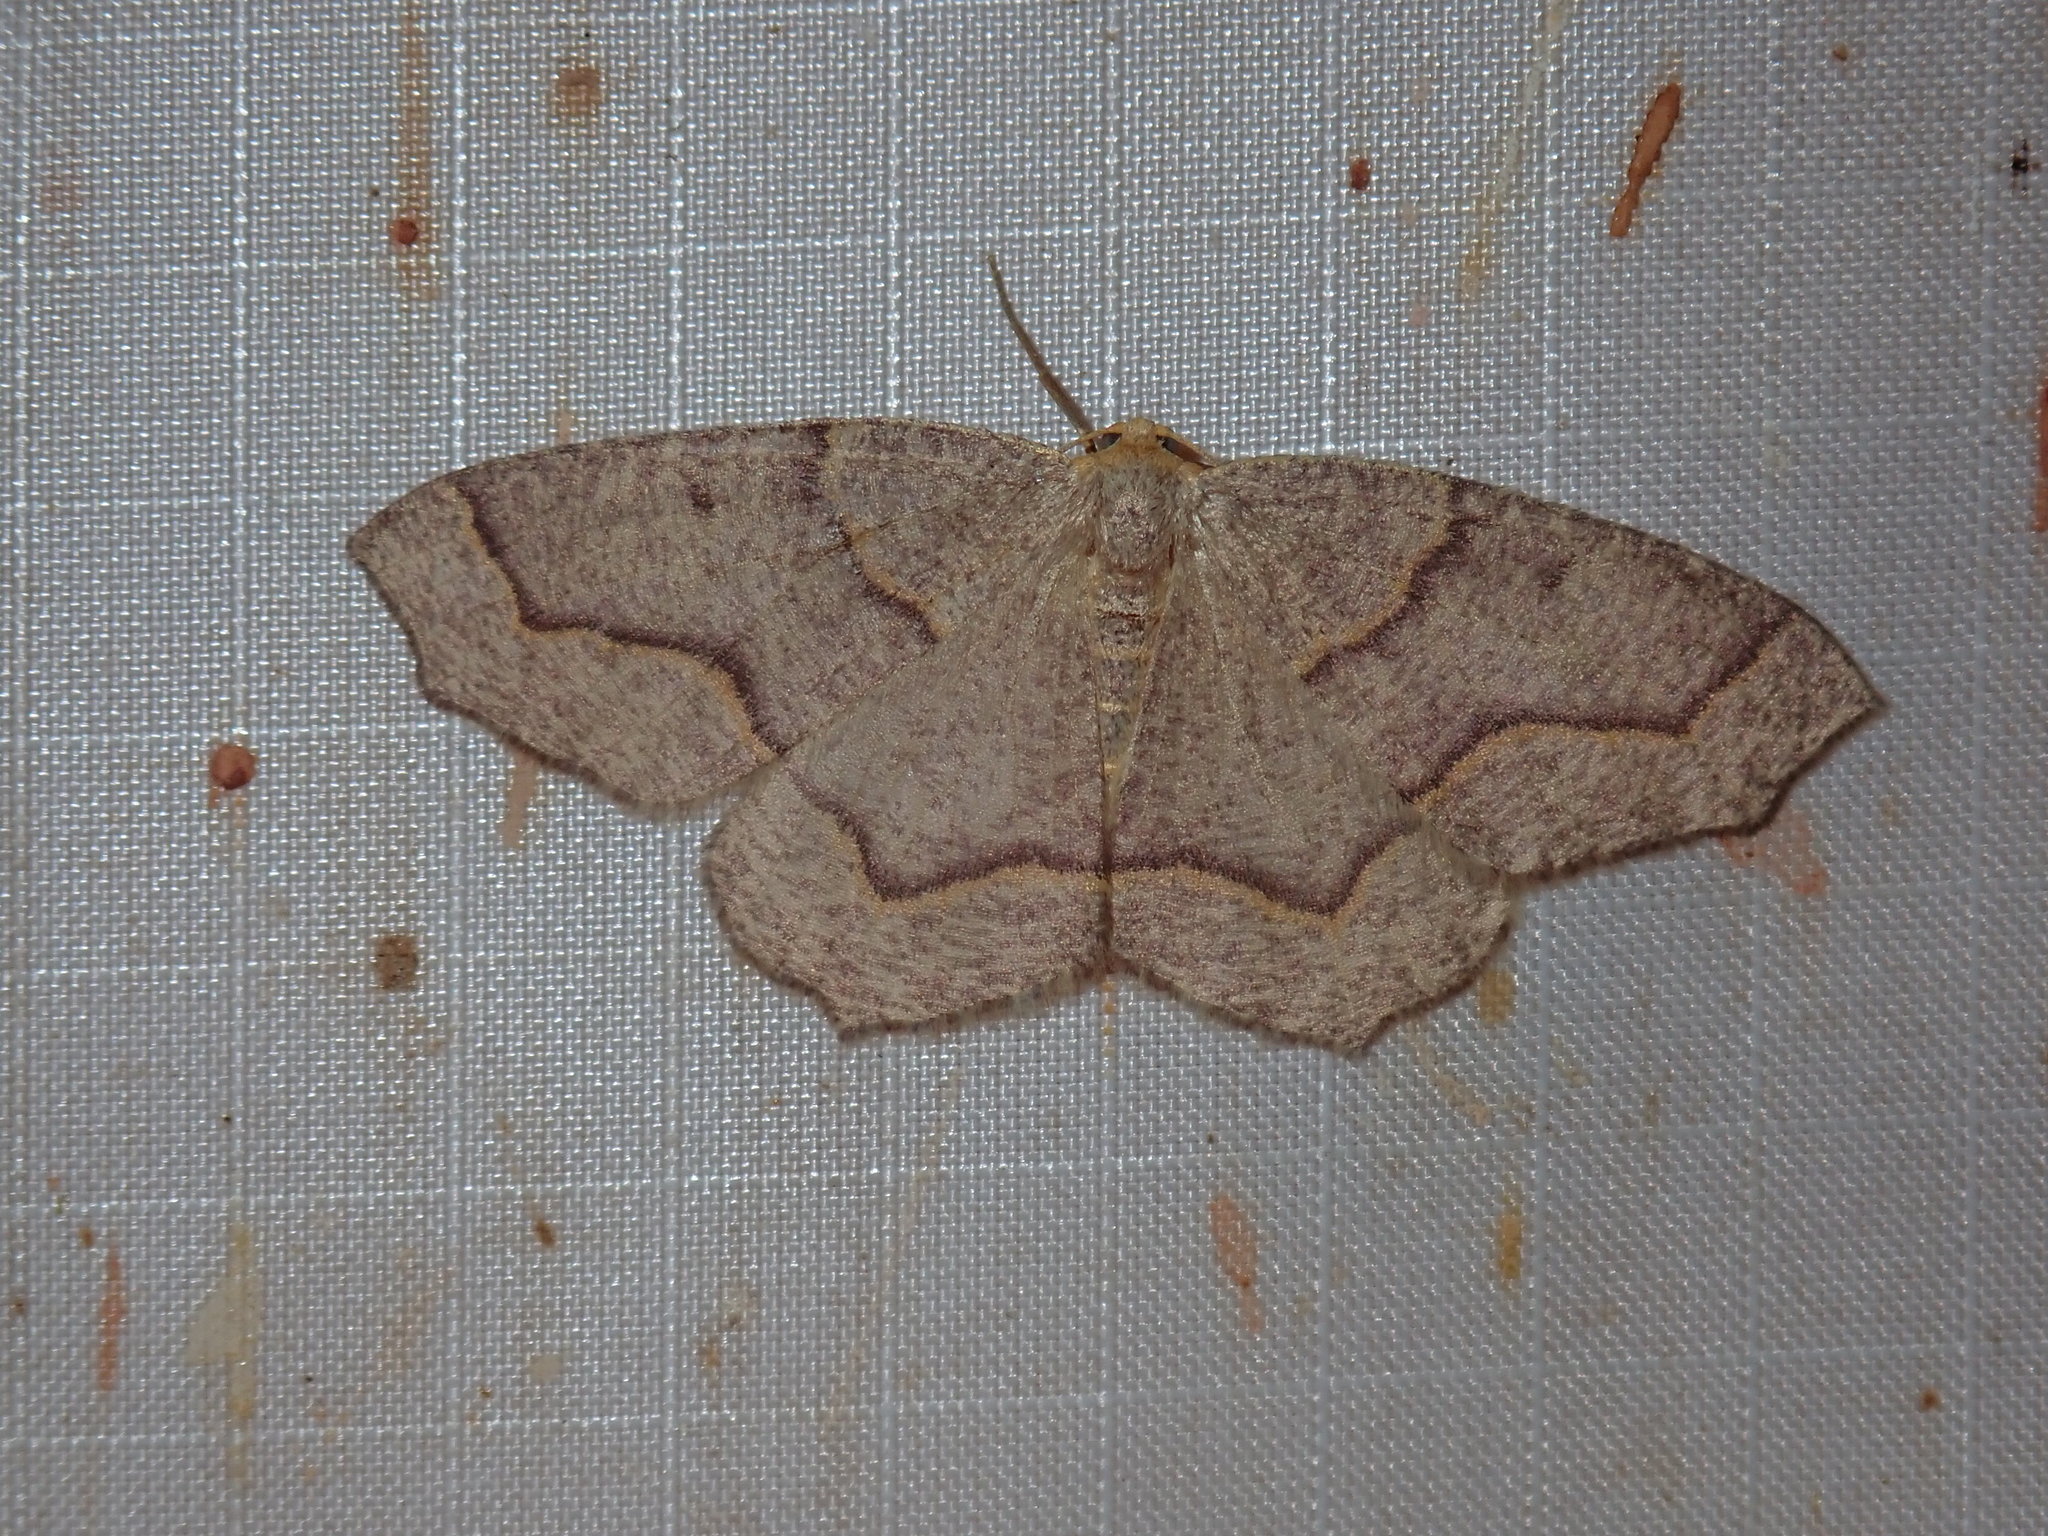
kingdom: Animalia
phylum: Arthropoda
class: Insecta
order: Lepidoptera
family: Geometridae
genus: Lambdina
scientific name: Lambdina fiscellaria
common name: Hemlock looper
